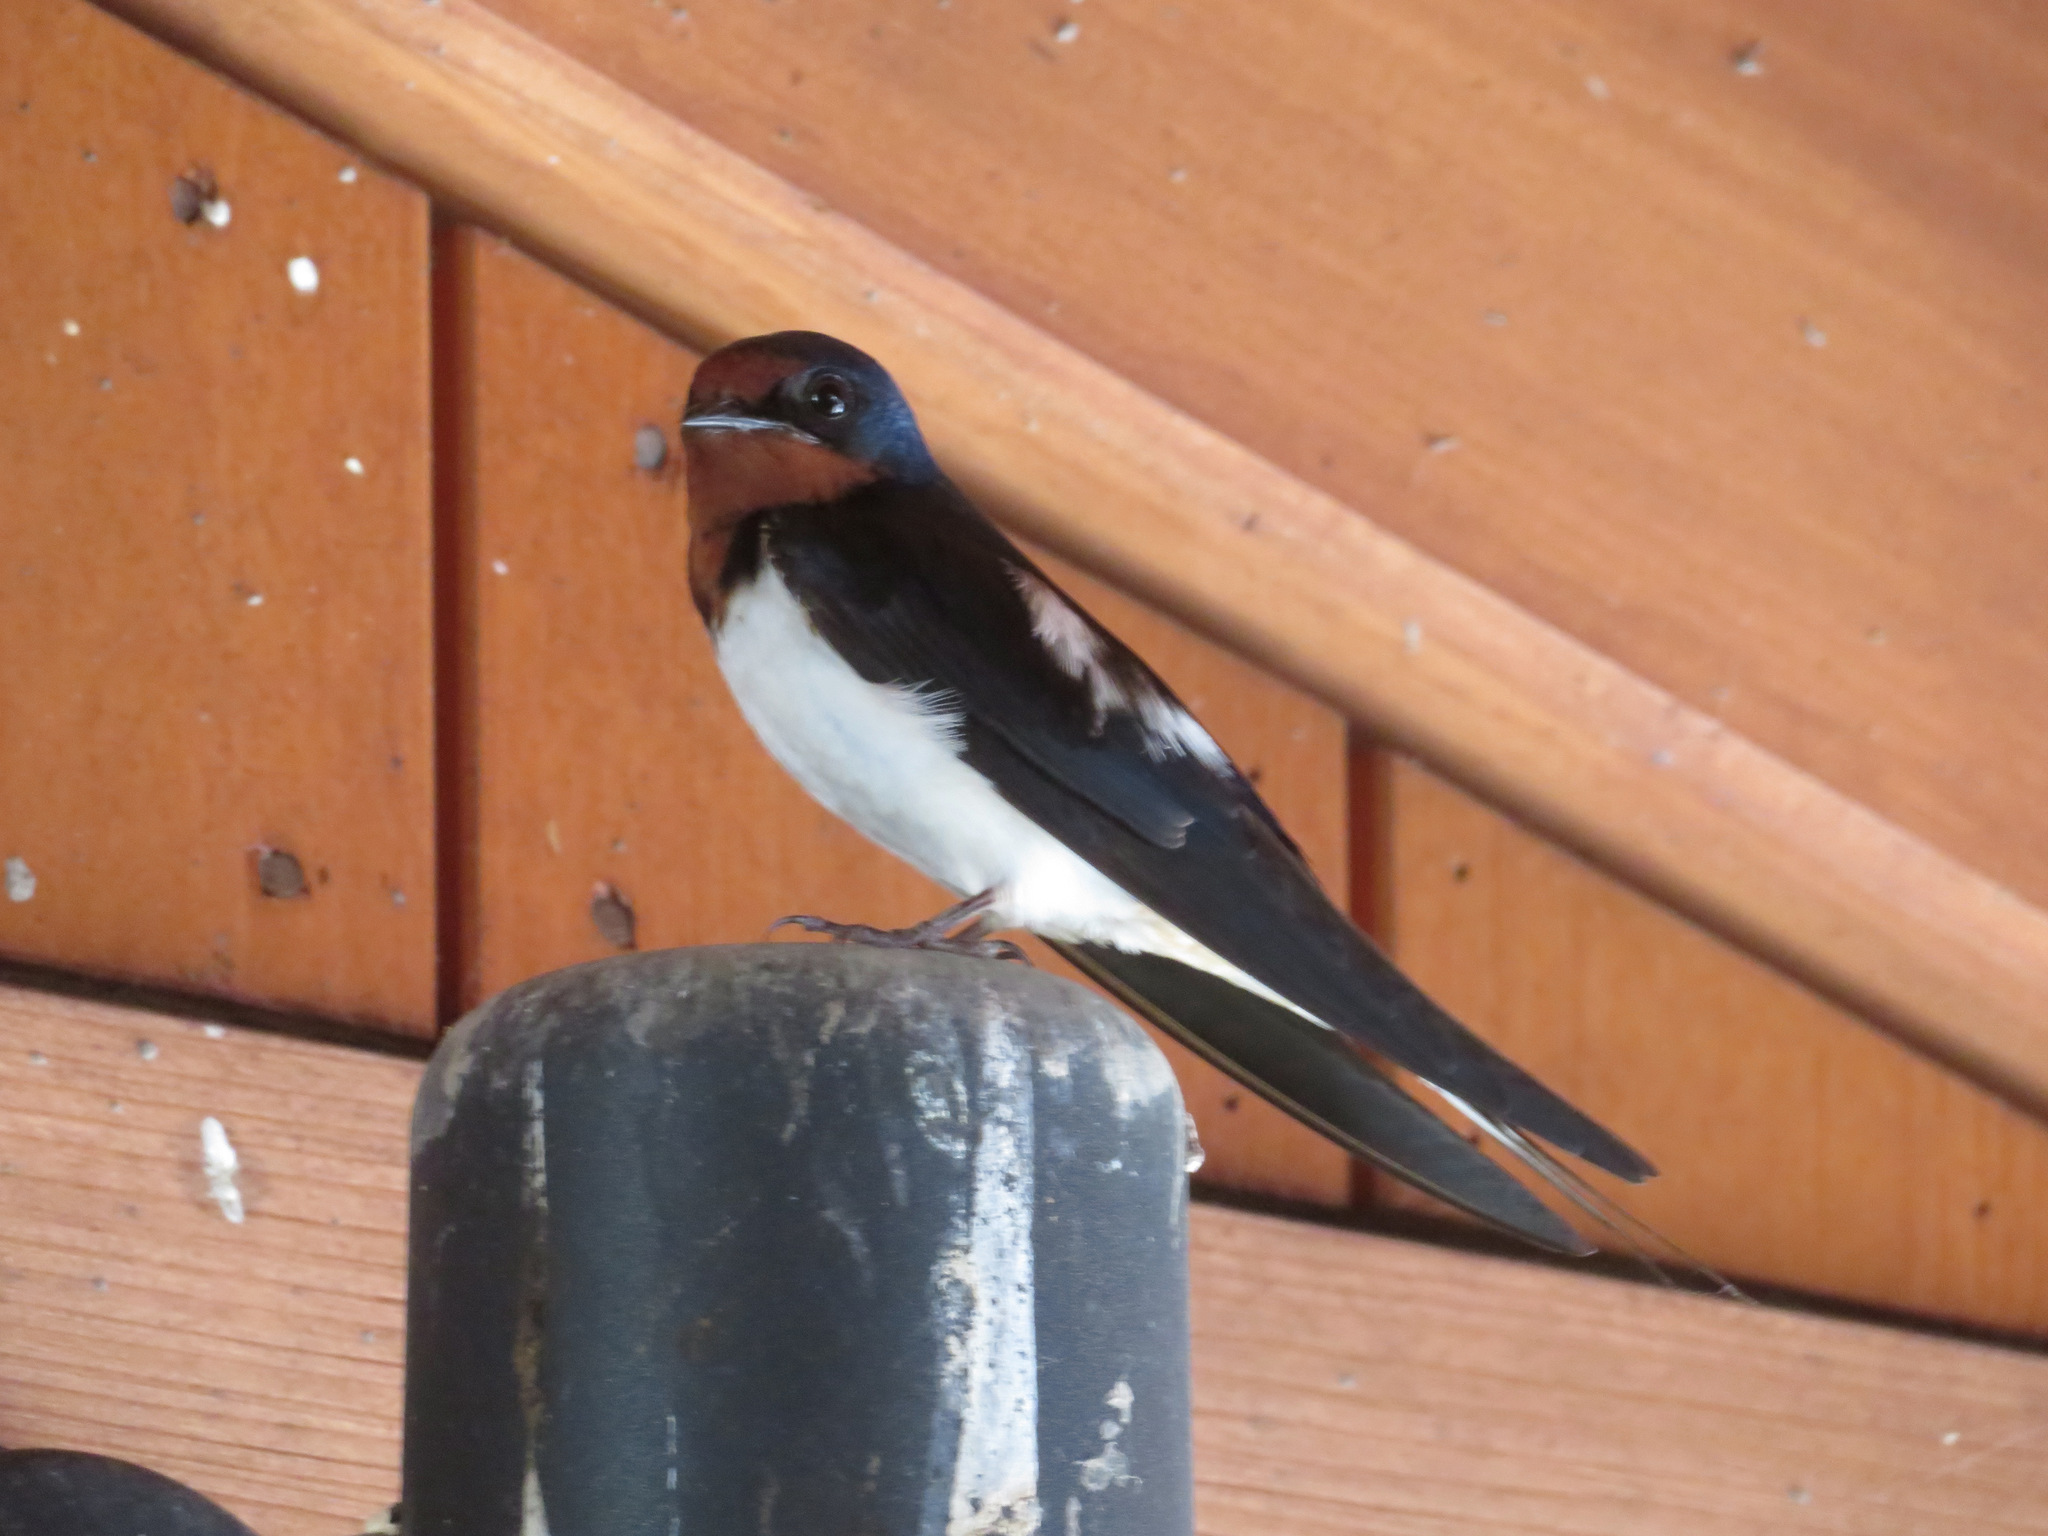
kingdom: Animalia
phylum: Chordata
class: Aves
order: Passeriformes
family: Hirundinidae
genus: Hirundo
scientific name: Hirundo rustica
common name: Barn swallow
